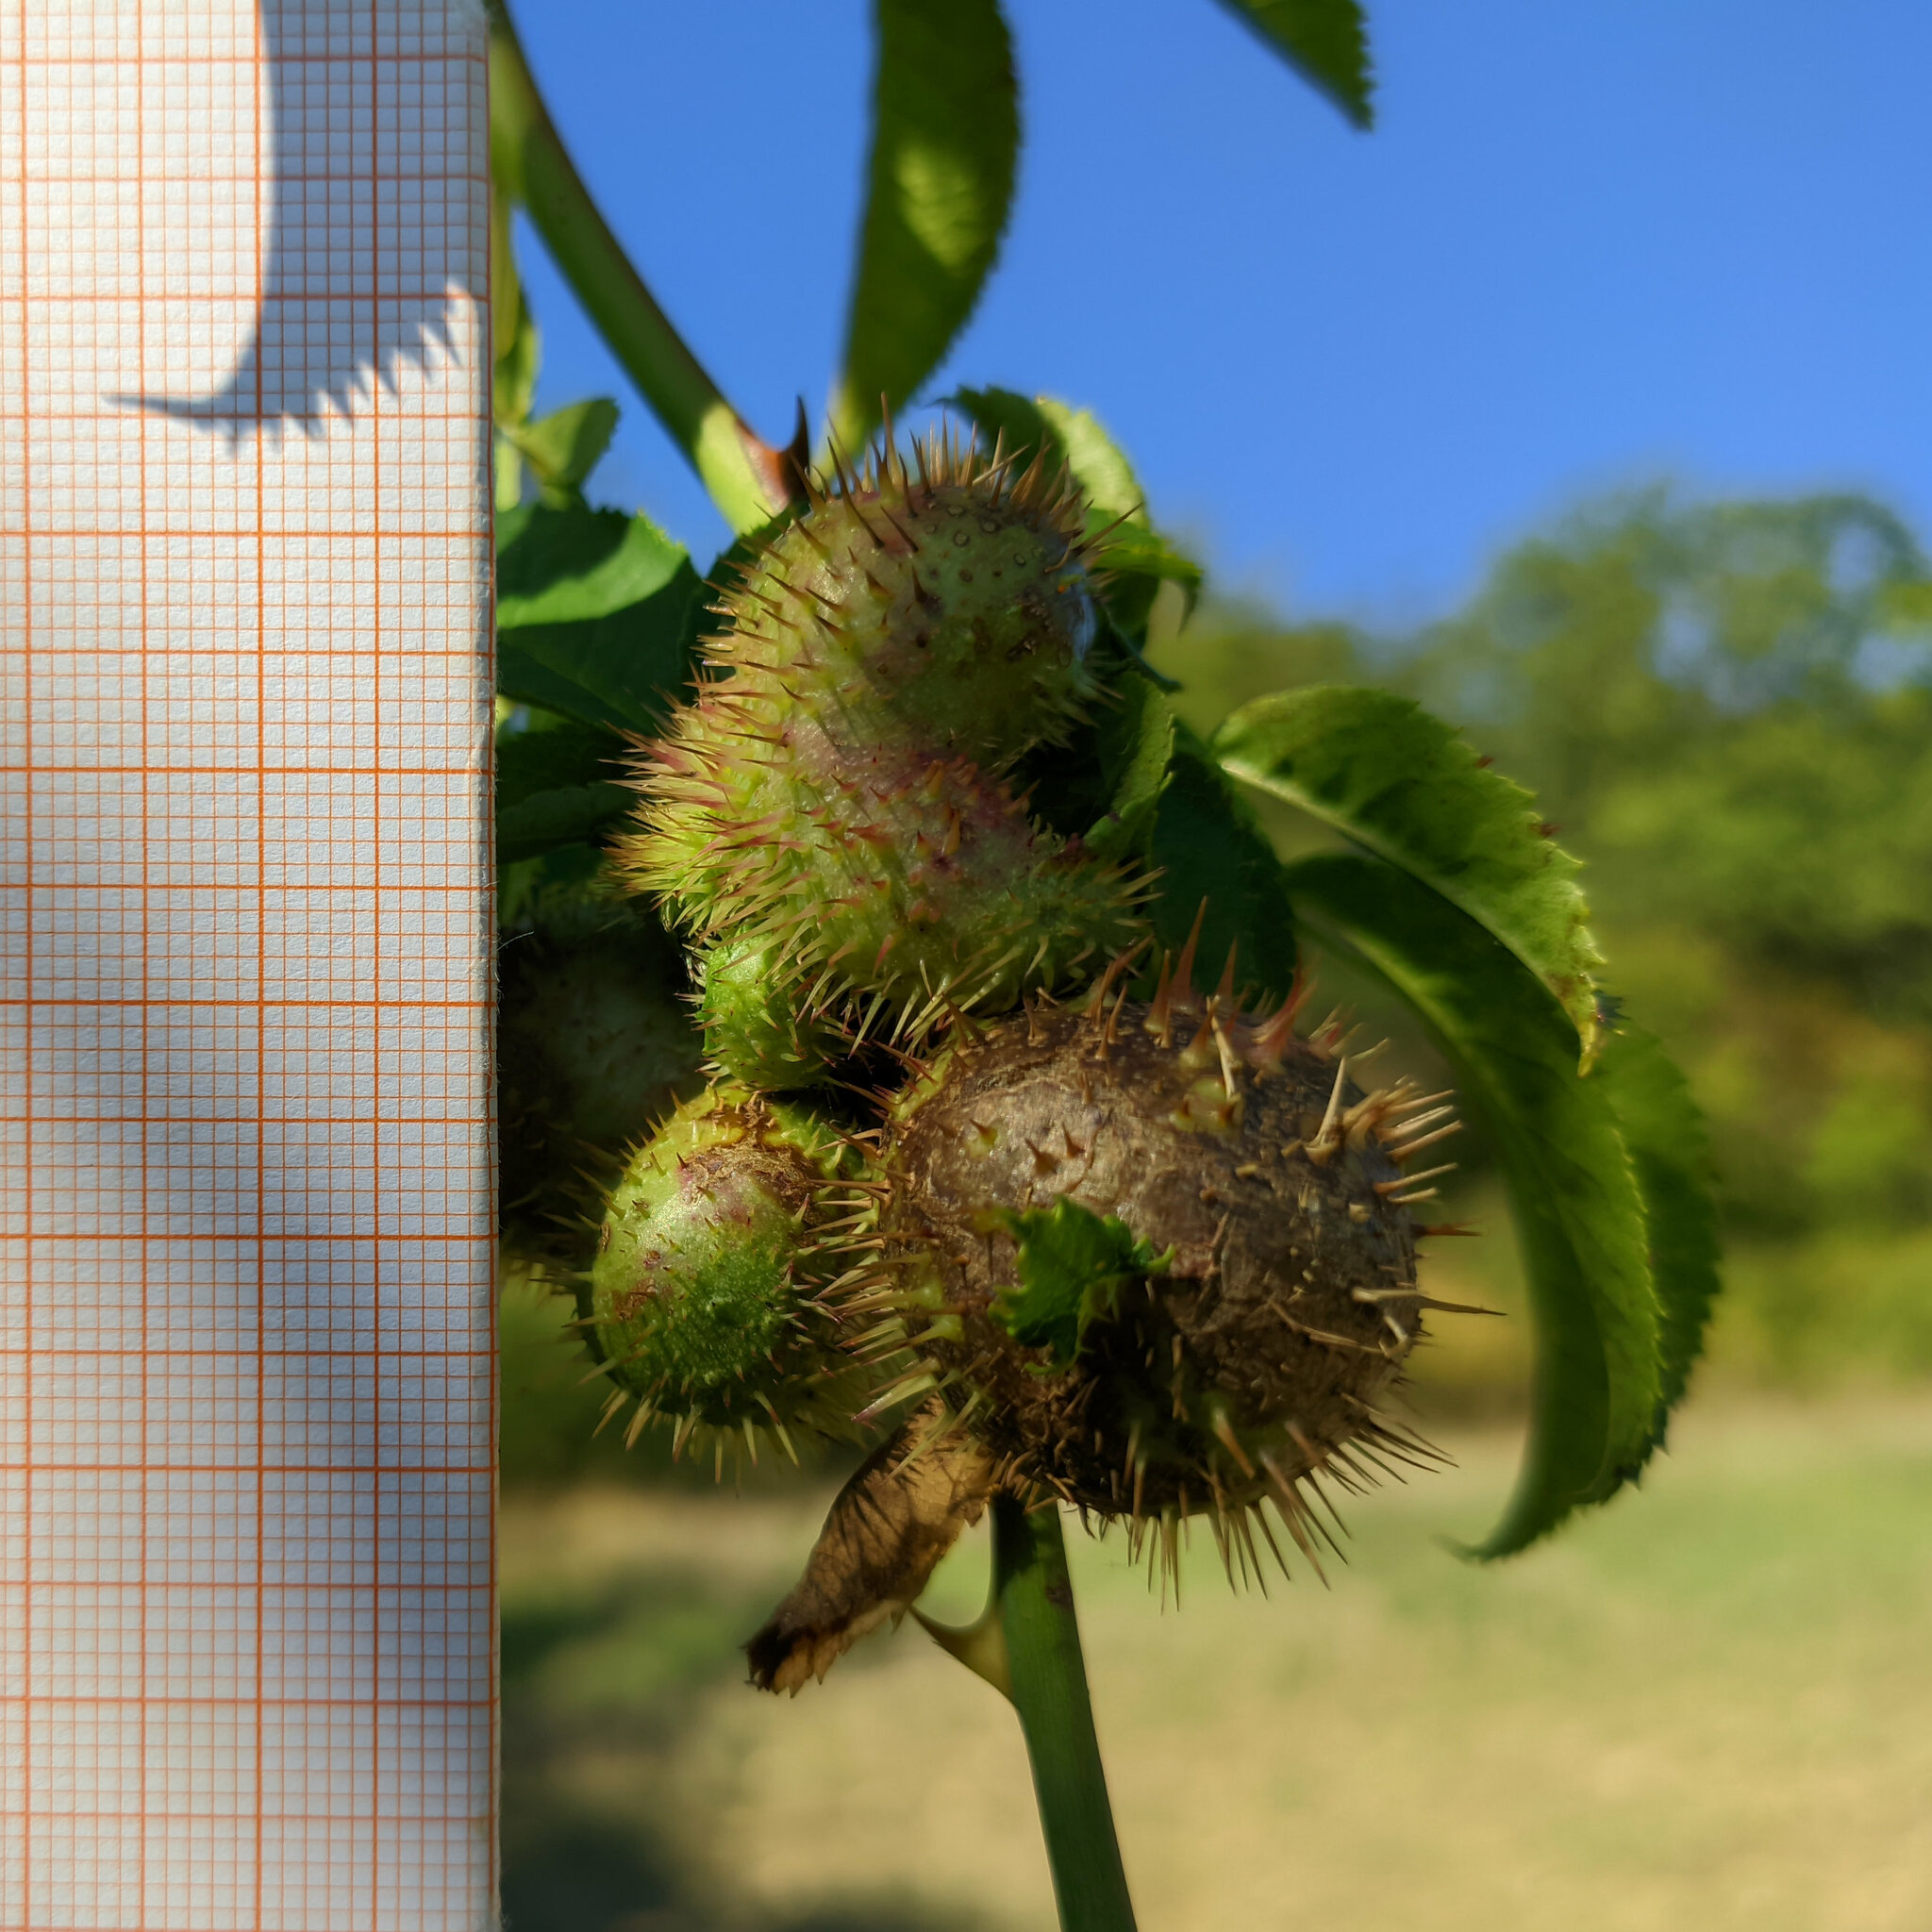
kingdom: Animalia
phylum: Arthropoda
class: Insecta
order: Hymenoptera
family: Cynipidae
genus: Diplolepis
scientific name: Diplolepis mayri
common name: Gall wasp
